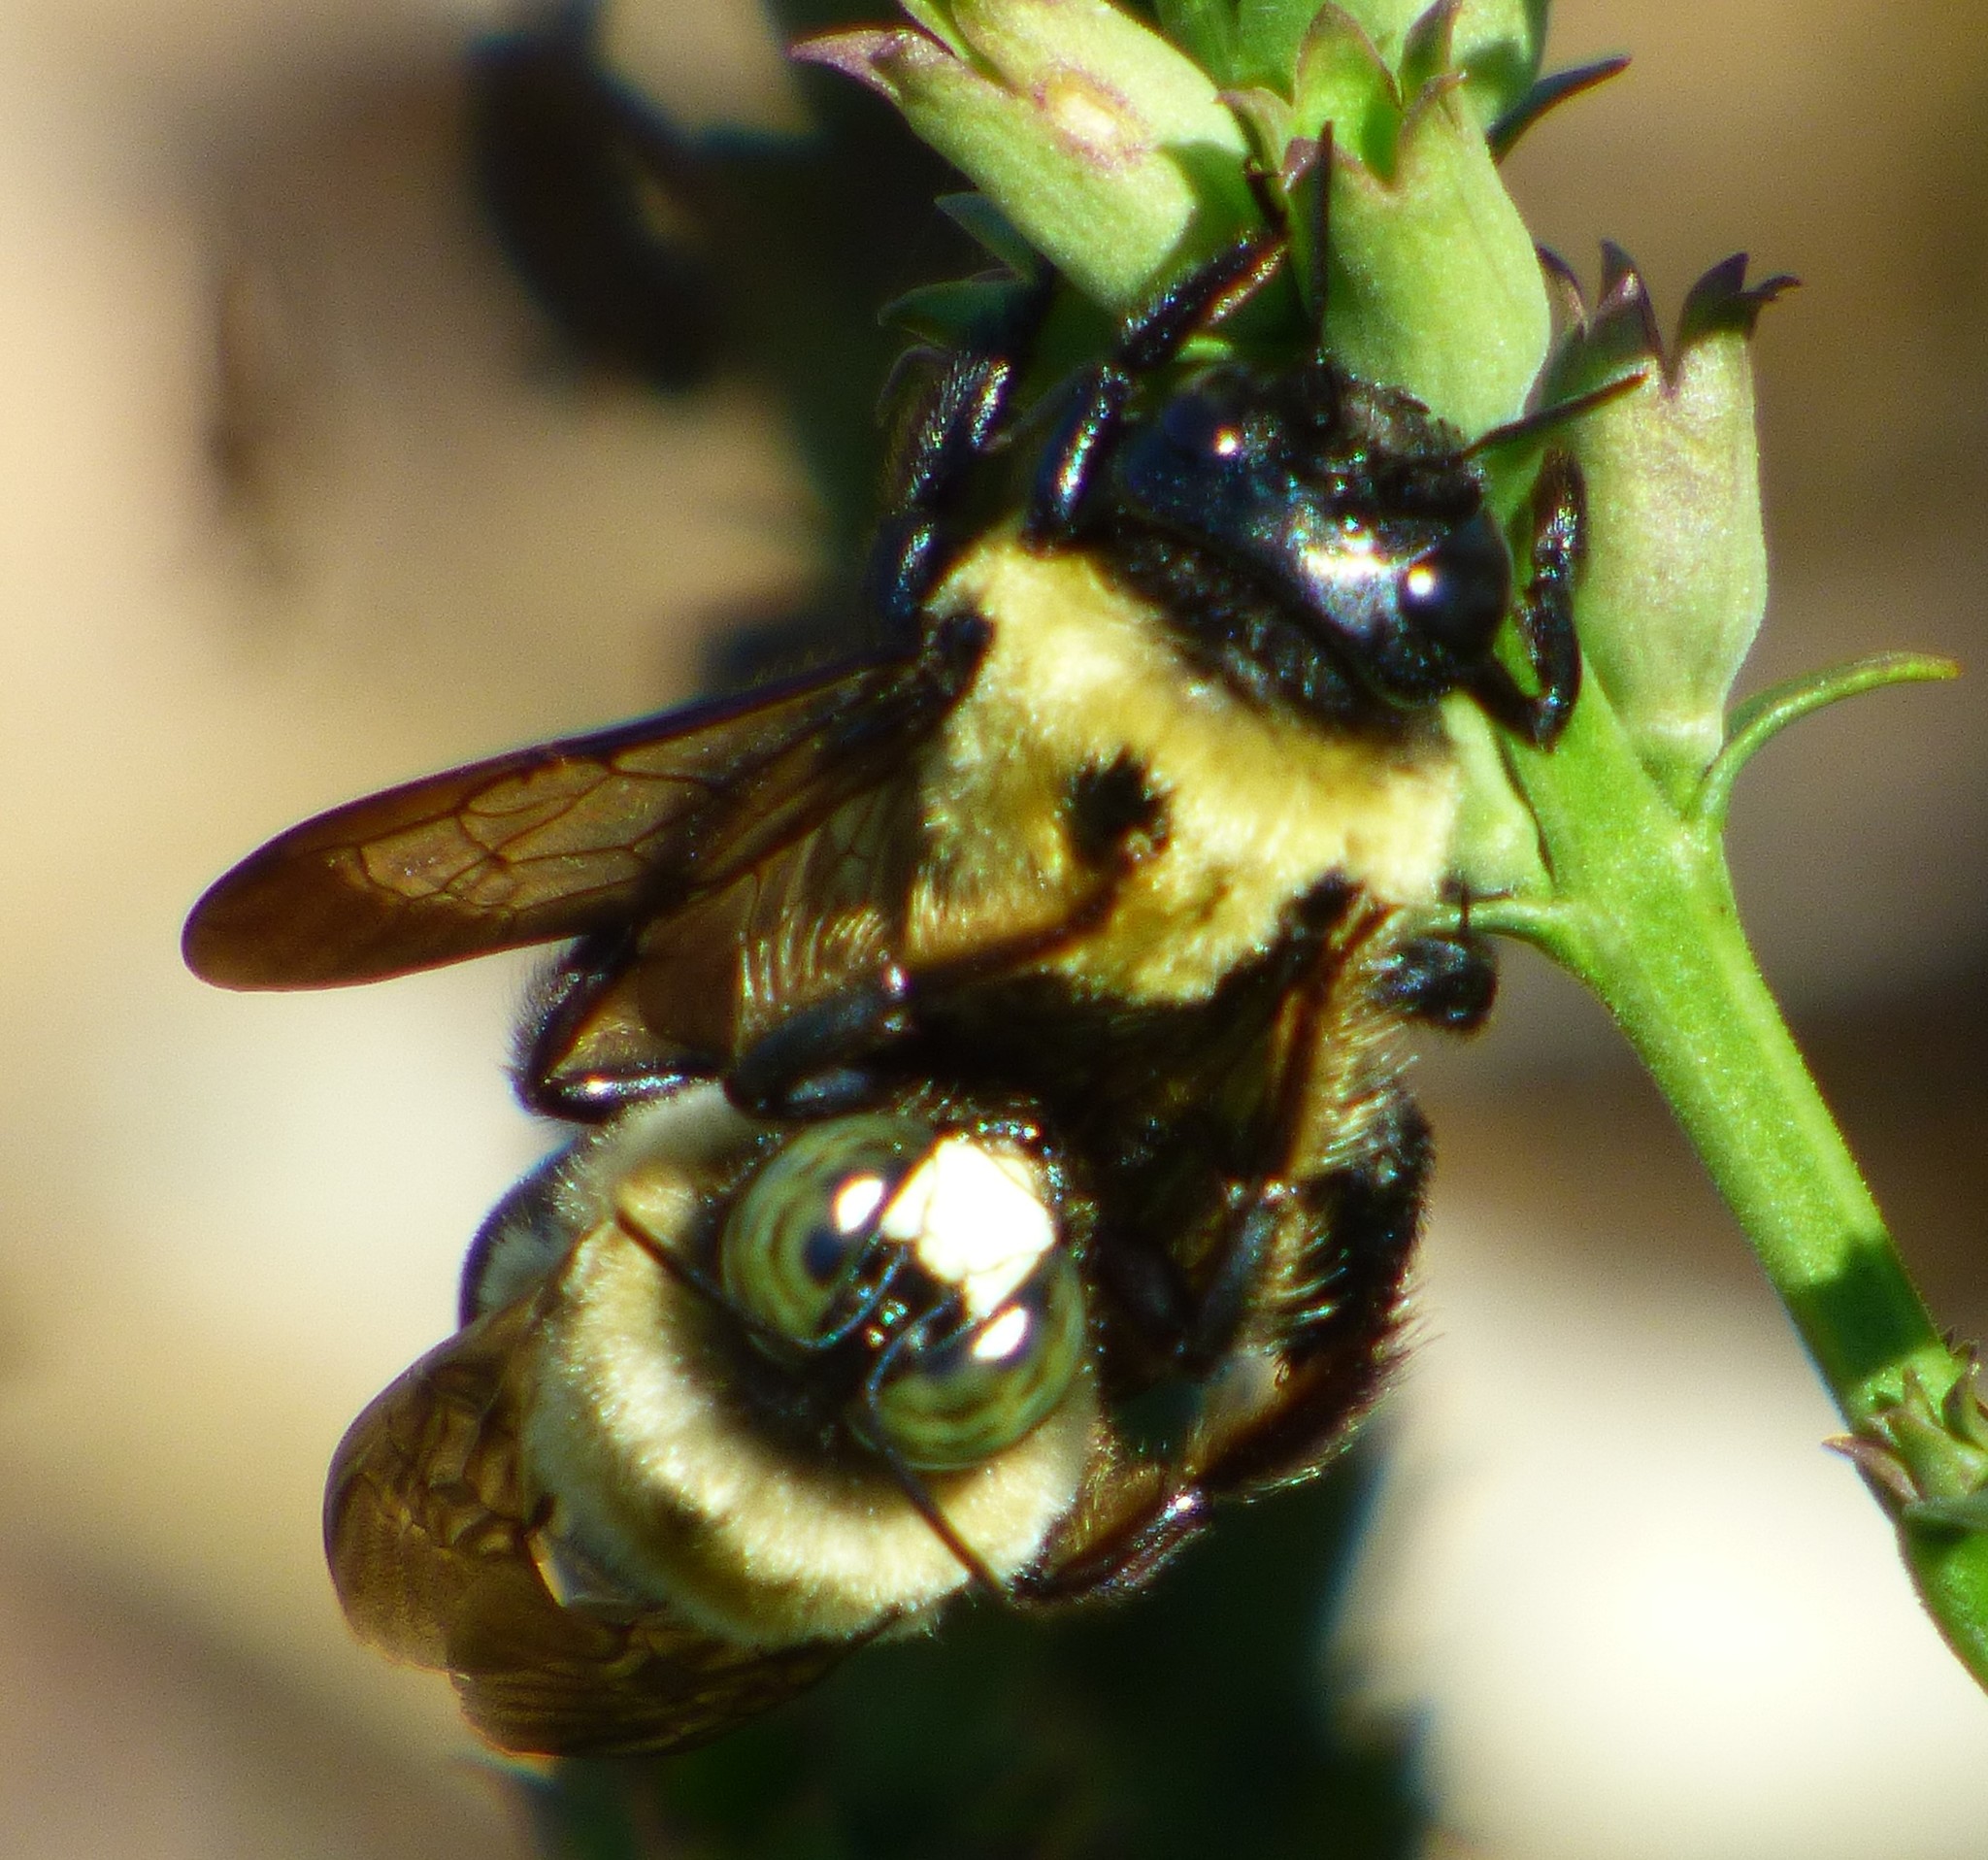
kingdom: Animalia
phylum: Arthropoda
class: Insecta
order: Hymenoptera
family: Apidae
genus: Xylocopa
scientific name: Xylocopa virginica
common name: Carpenter bee
